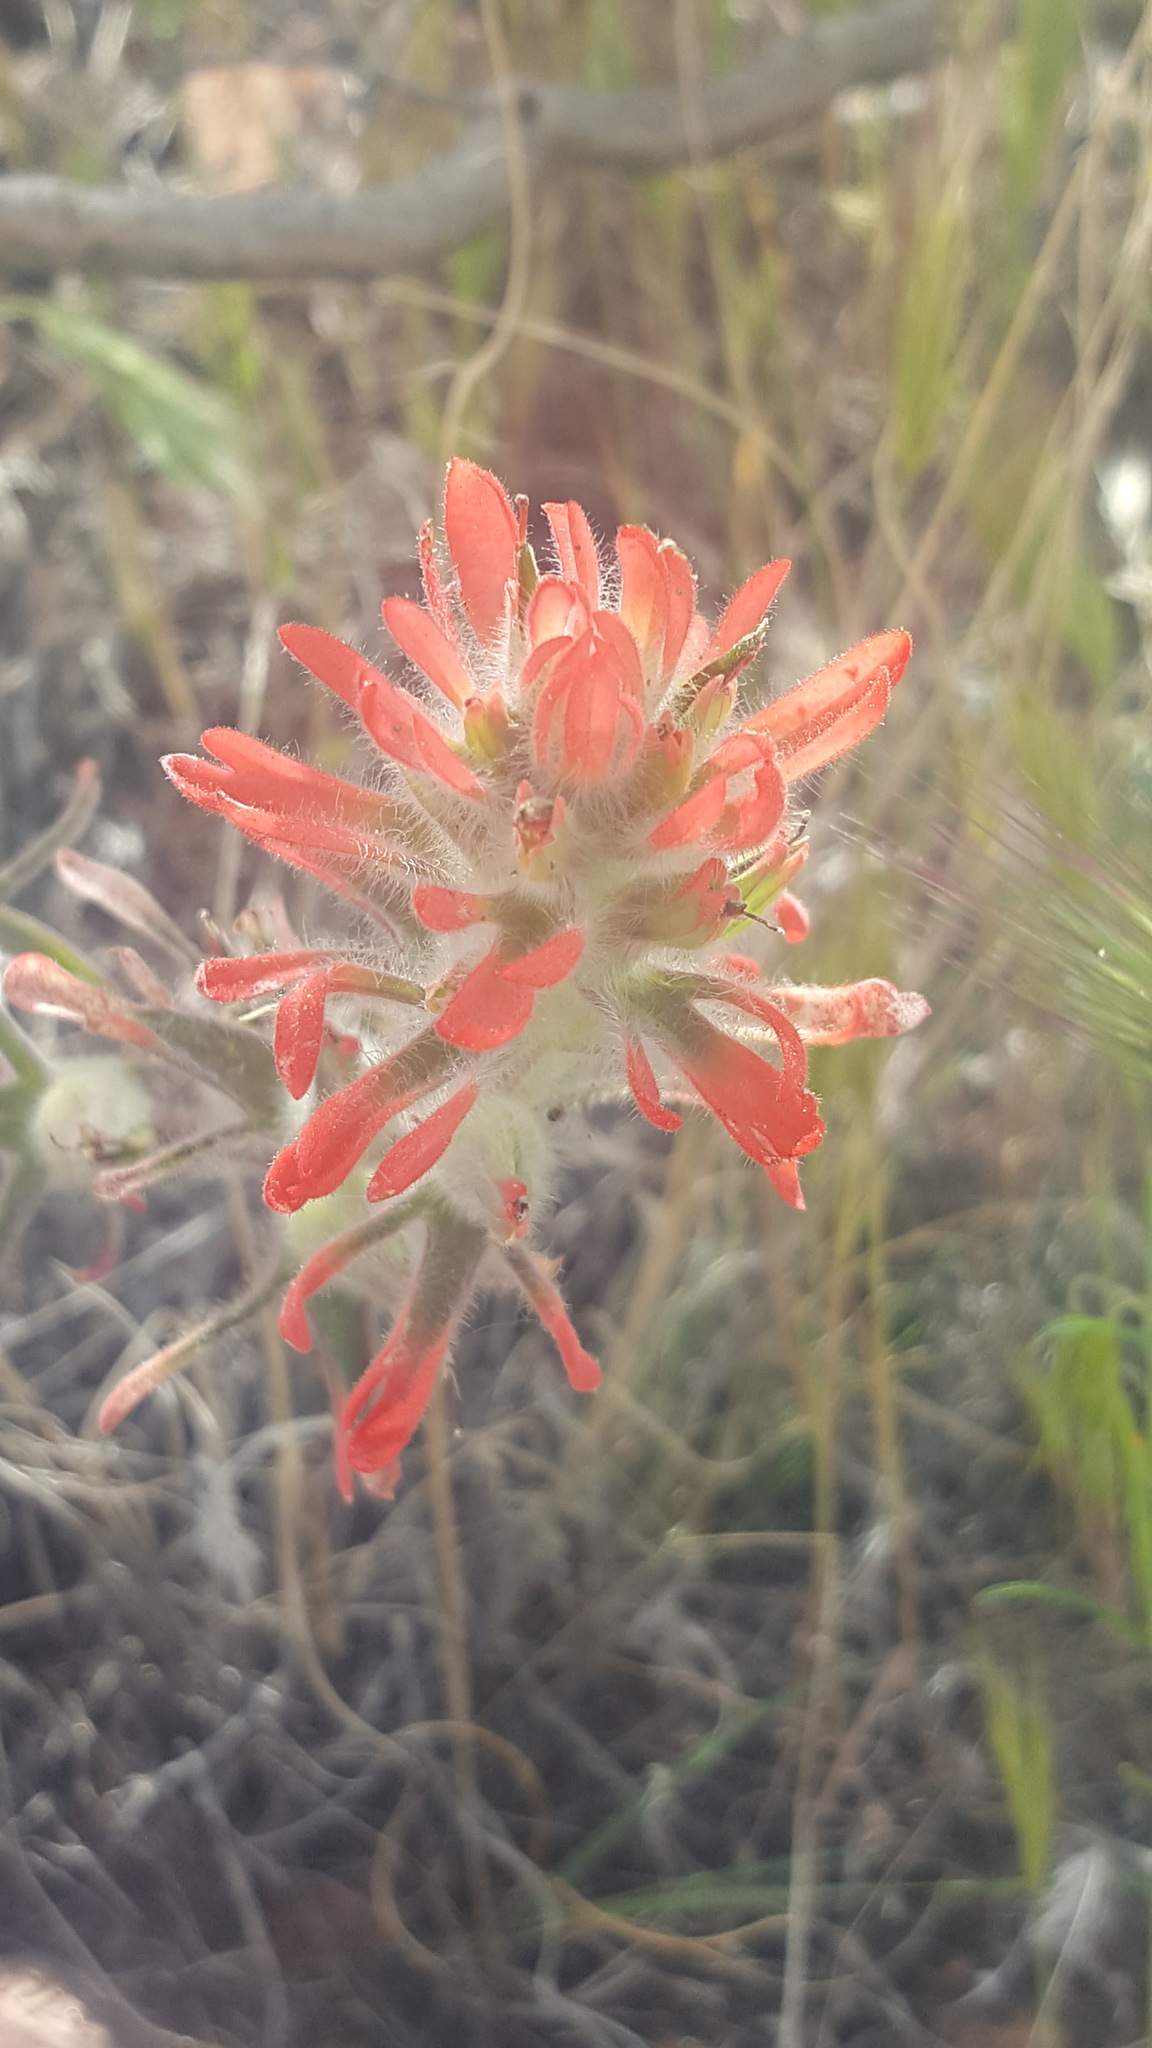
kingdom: Plantae
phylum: Tracheophyta
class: Magnoliopsida
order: Lamiales
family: Orobanchaceae
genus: Castilleja
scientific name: Castilleja chromosa
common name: Desert paintbrush
